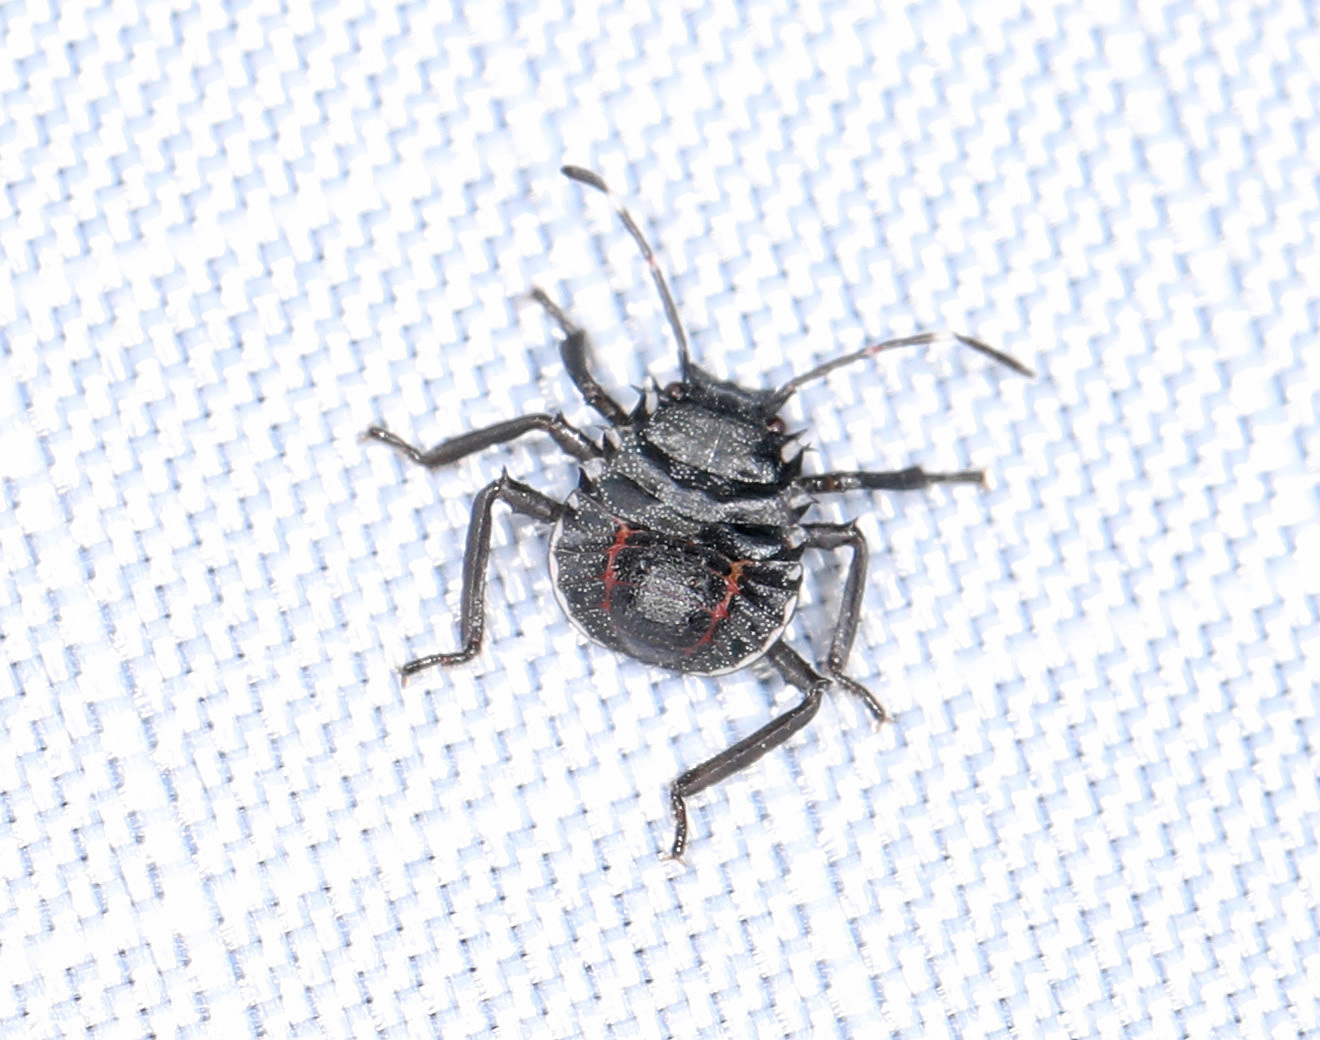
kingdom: Animalia
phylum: Arthropoda
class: Insecta
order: Hemiptera
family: Pentatomidae
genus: Halyomorpha
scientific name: Halyomorpha halys
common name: Brown marmorated stink bug
